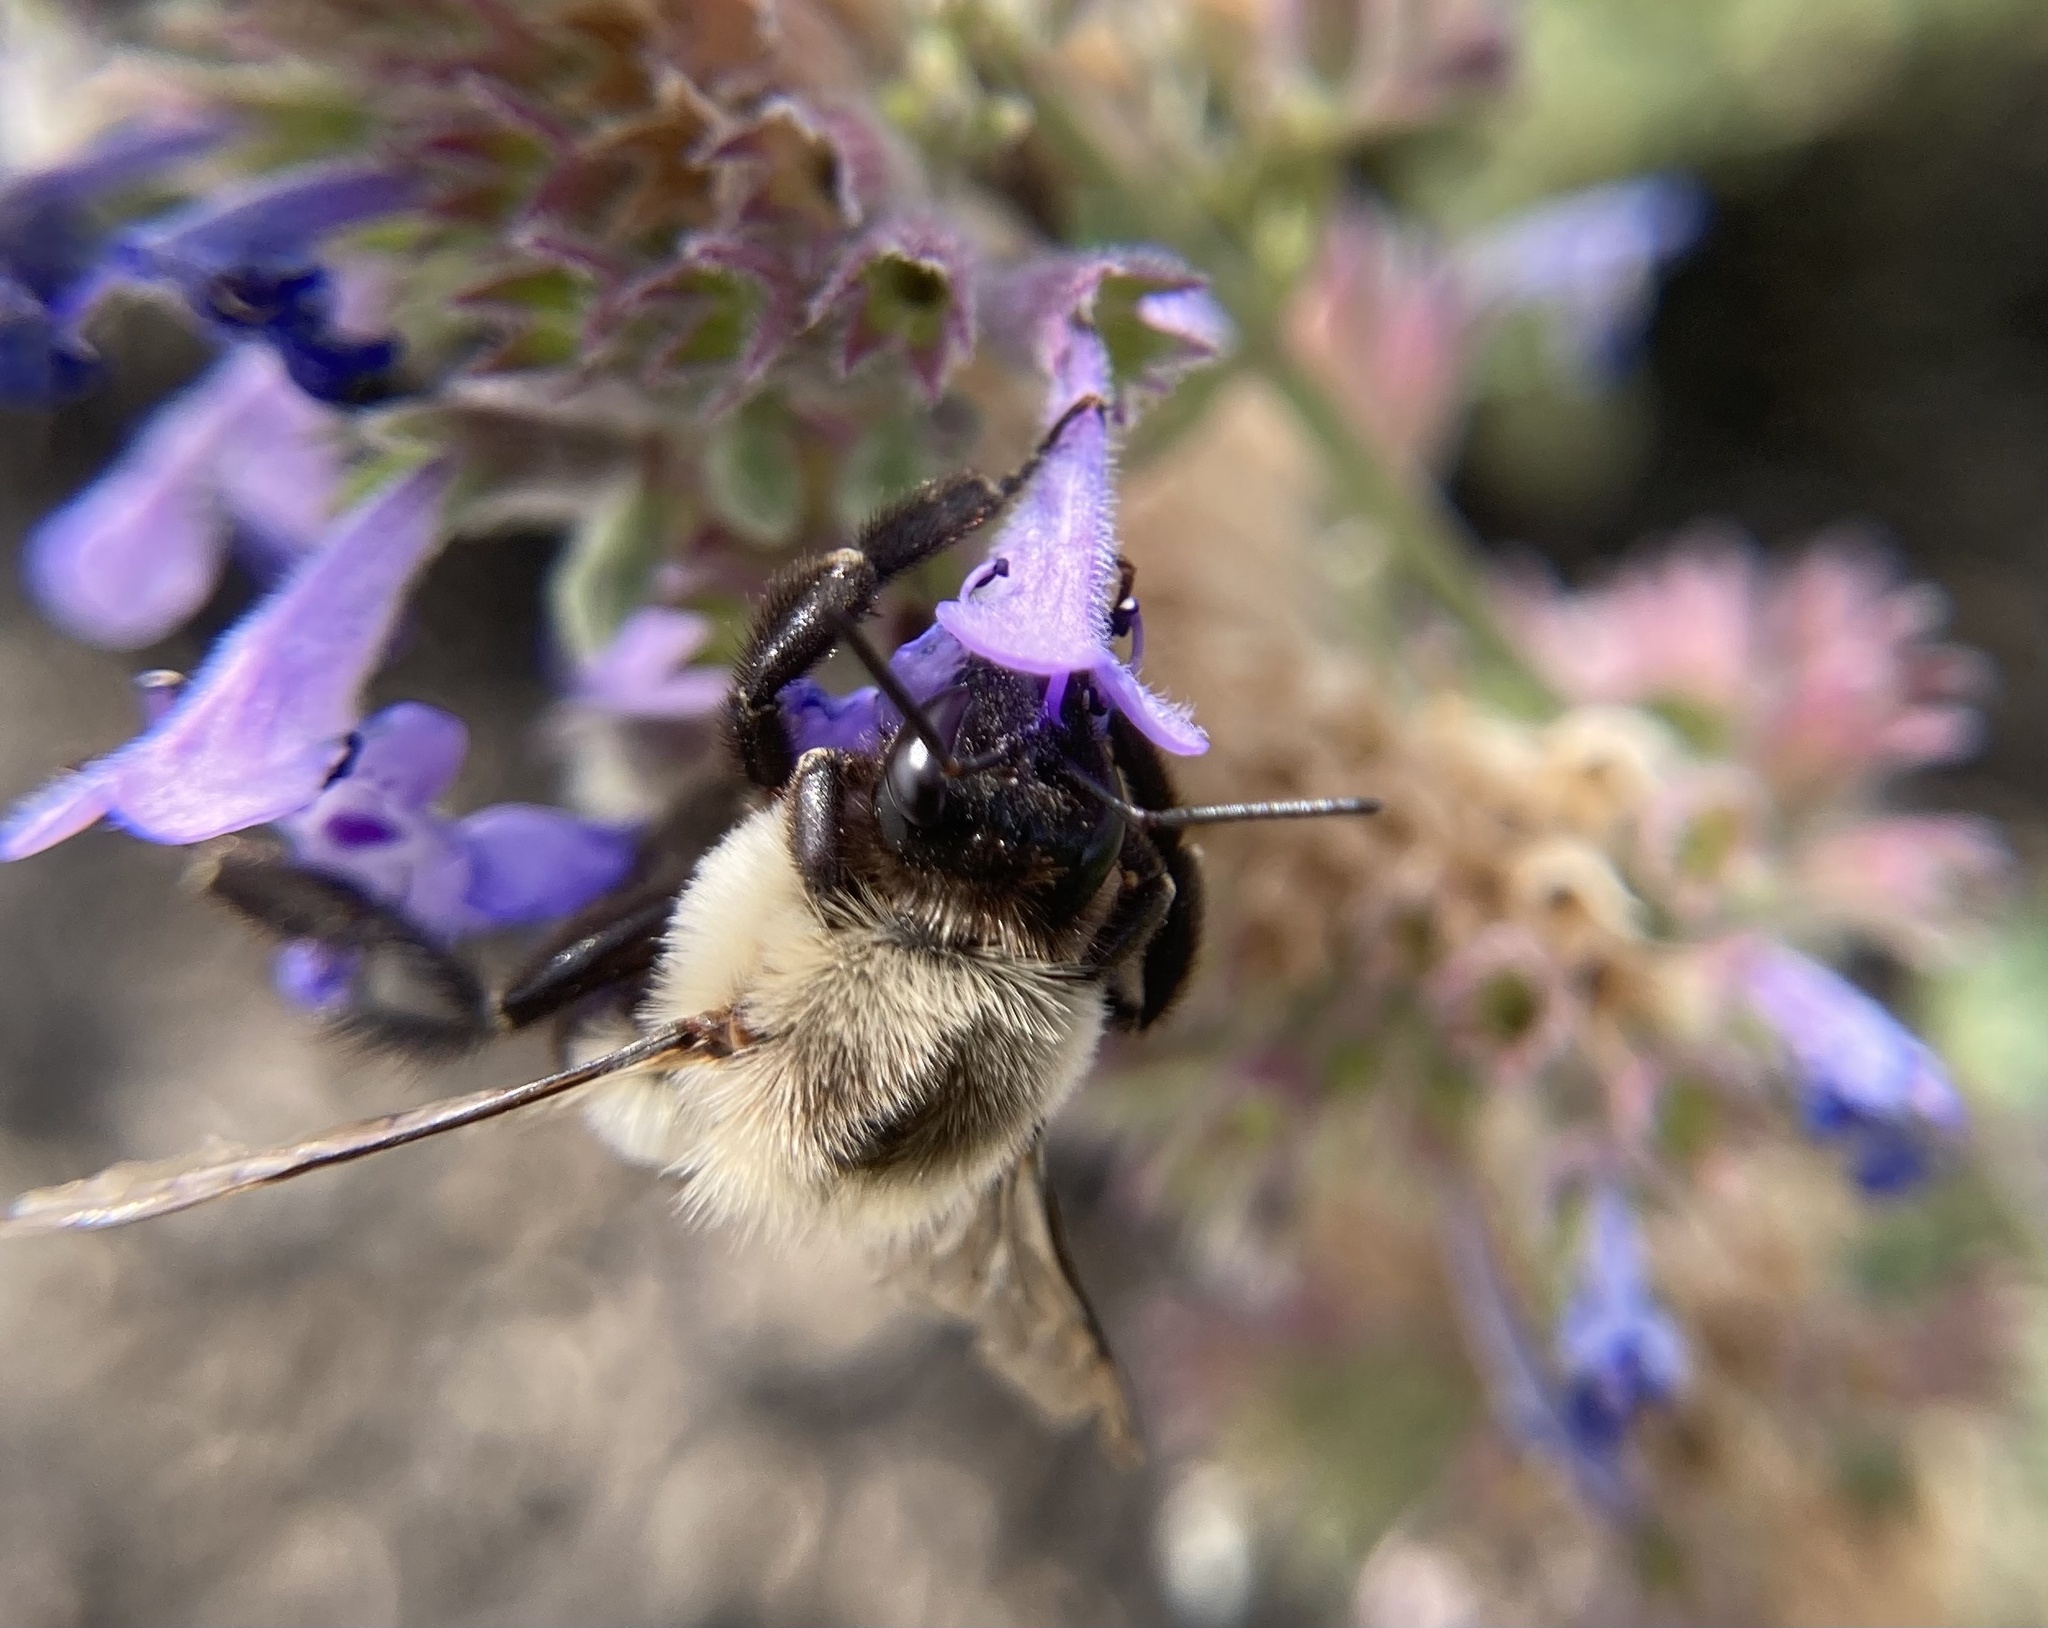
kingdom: Animalia
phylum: Arthropoda
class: Insecta
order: Hymenoptera
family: Apidae
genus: Bombus
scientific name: Bombus impatiens
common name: Common eastern bumble bee
